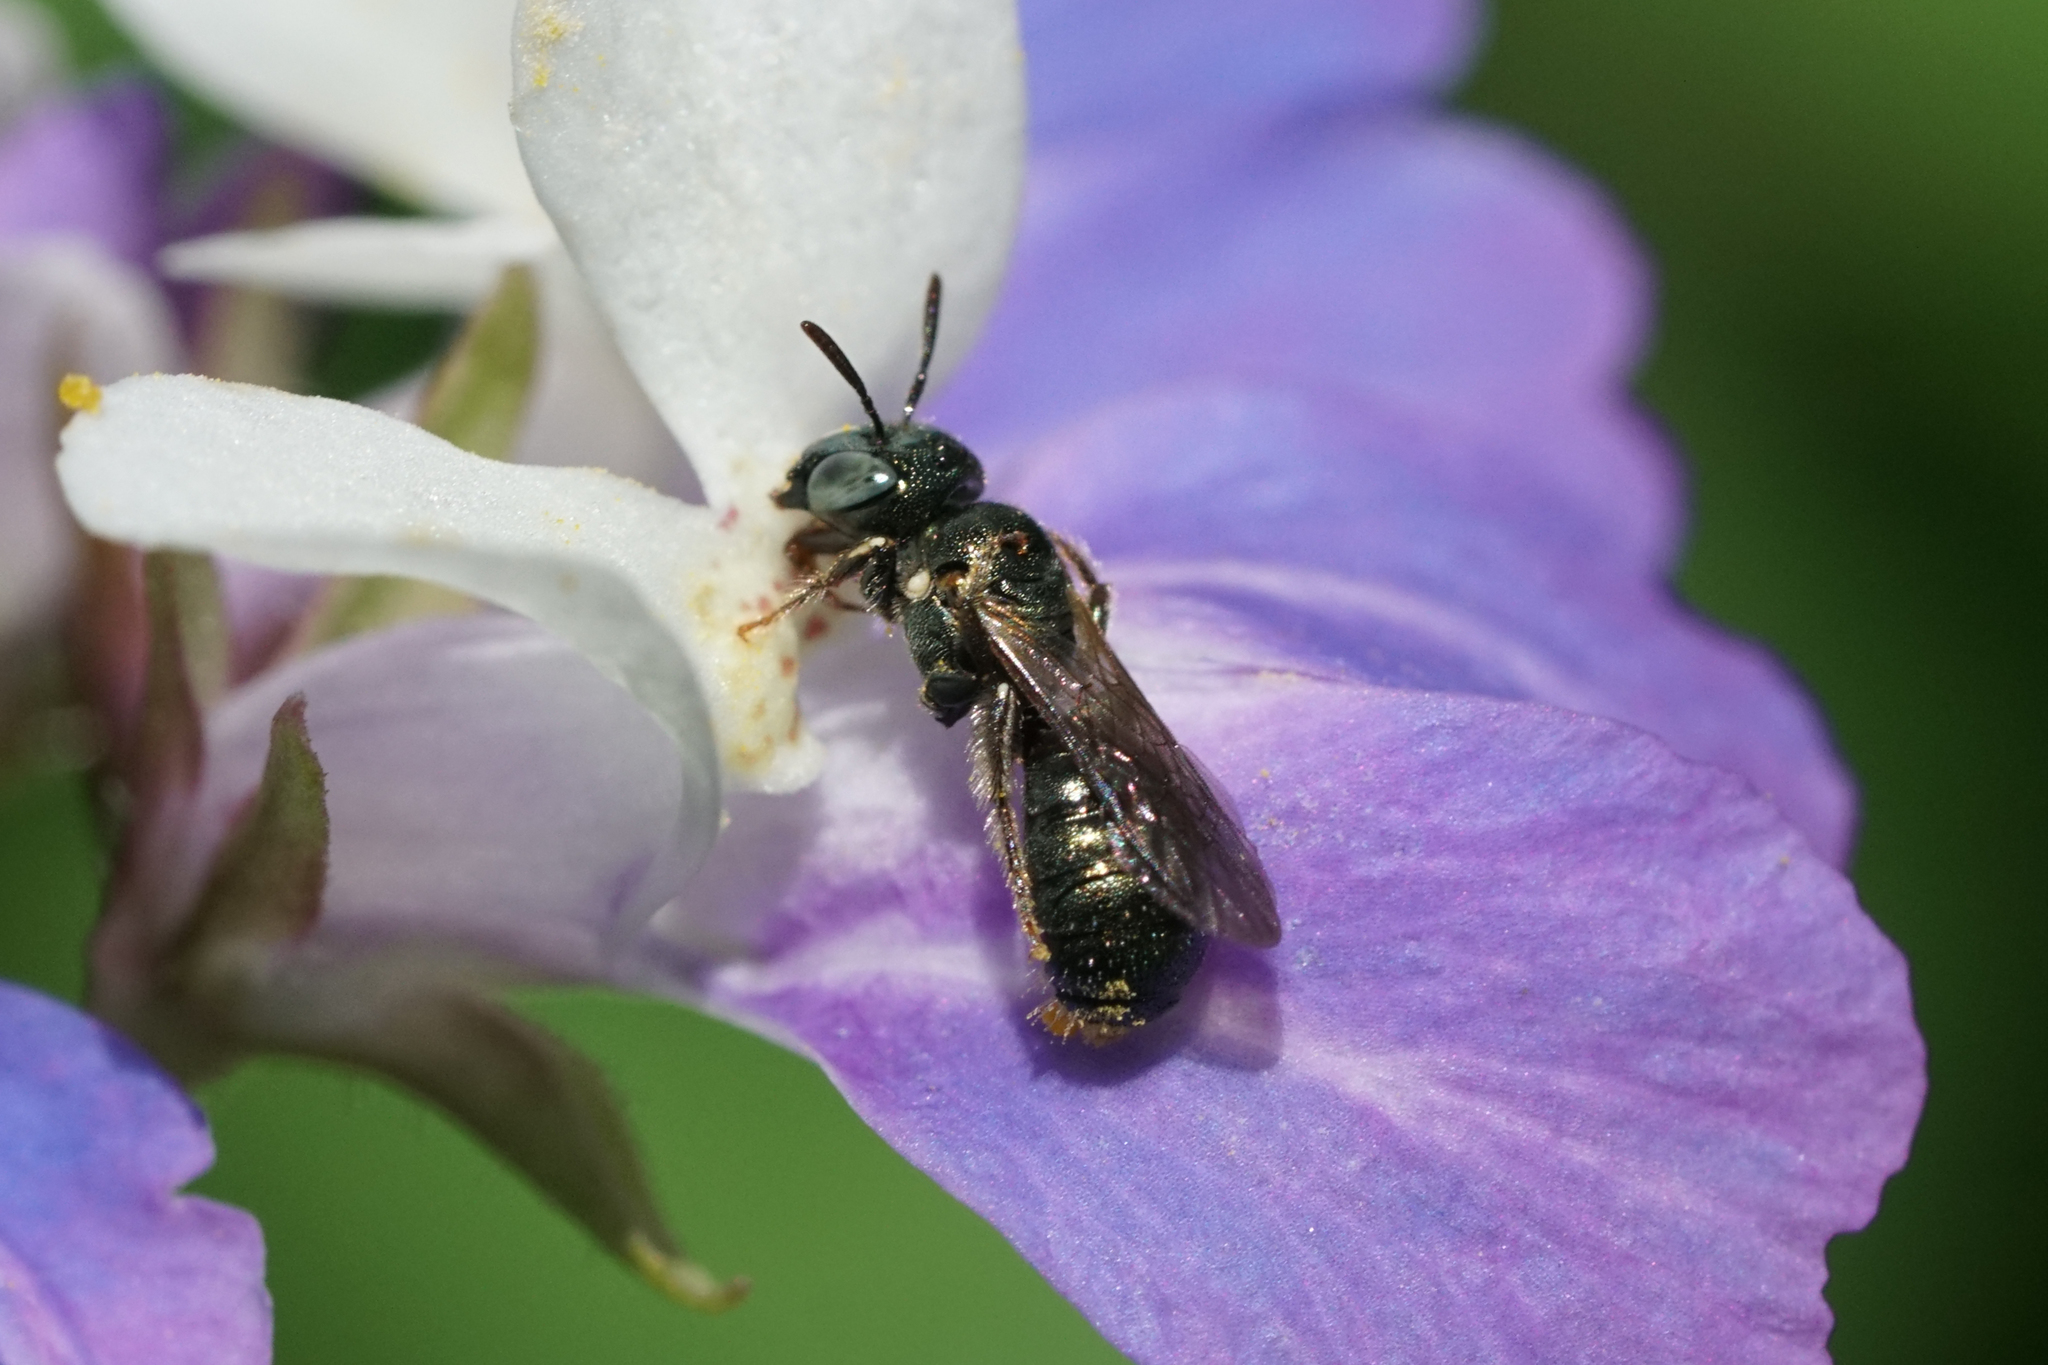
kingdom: Animalia
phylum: Arthropoda
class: Insecta
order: Hymenoptera
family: Apidae
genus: Ceratina
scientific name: Ceratina strenua
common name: Nimble carpenter bee
